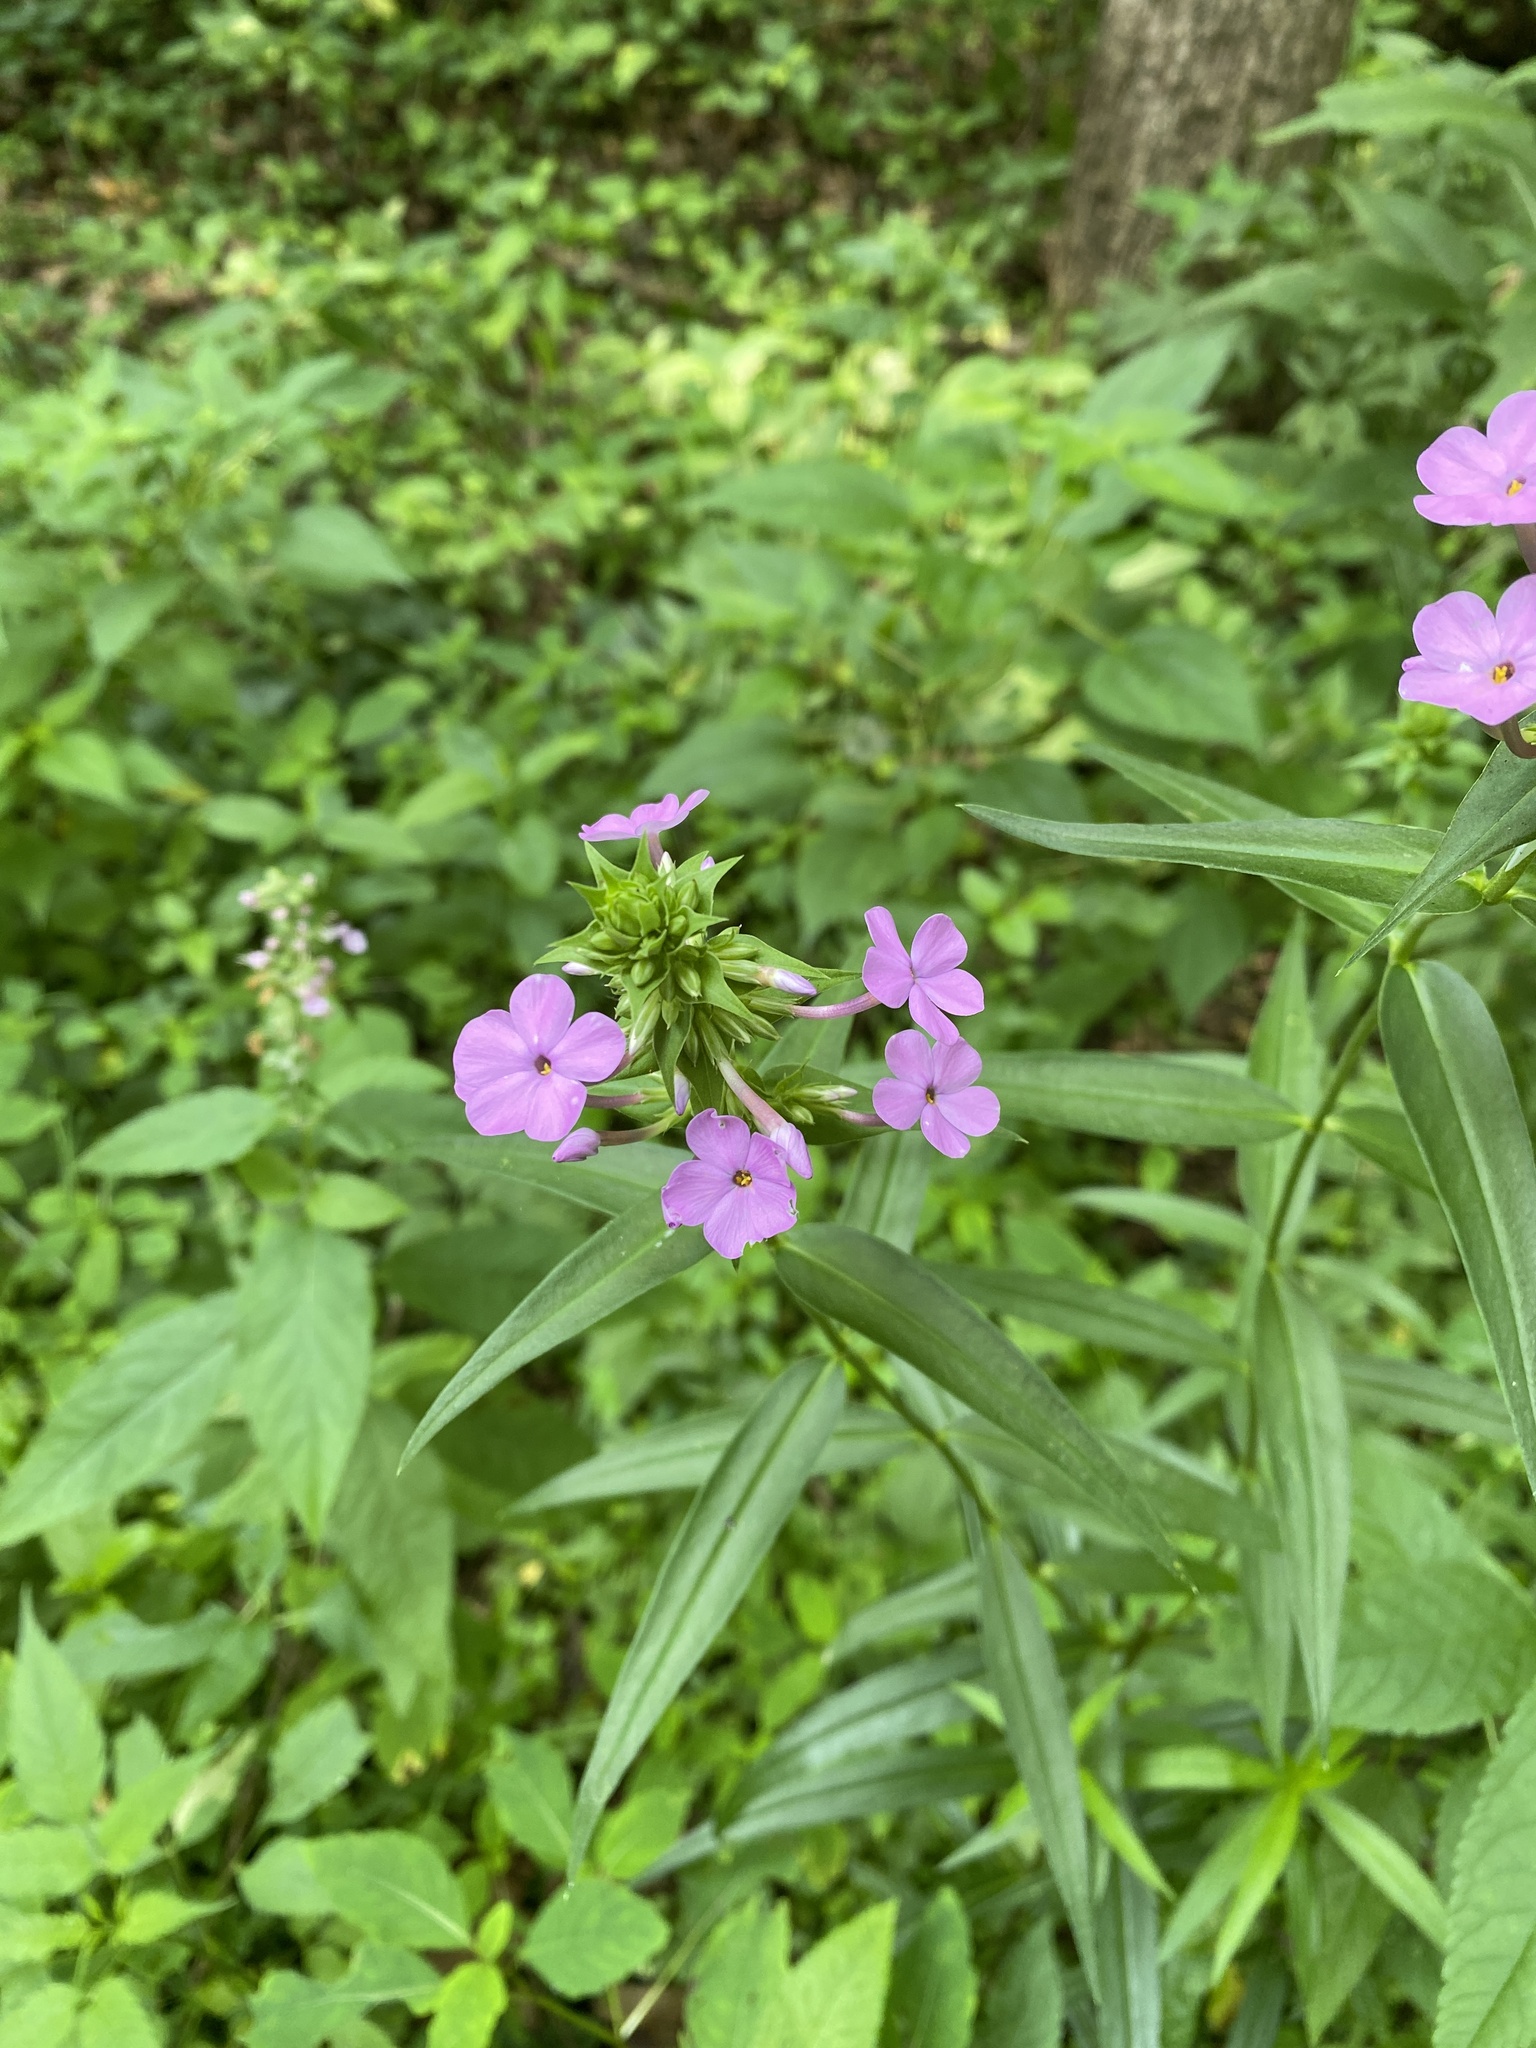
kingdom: Plantae
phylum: Tracheophyta
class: Magnoliopsida
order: Ericales
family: Polemoniaceae
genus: Phlox
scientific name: Phlox maculata
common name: Meadow phlox
